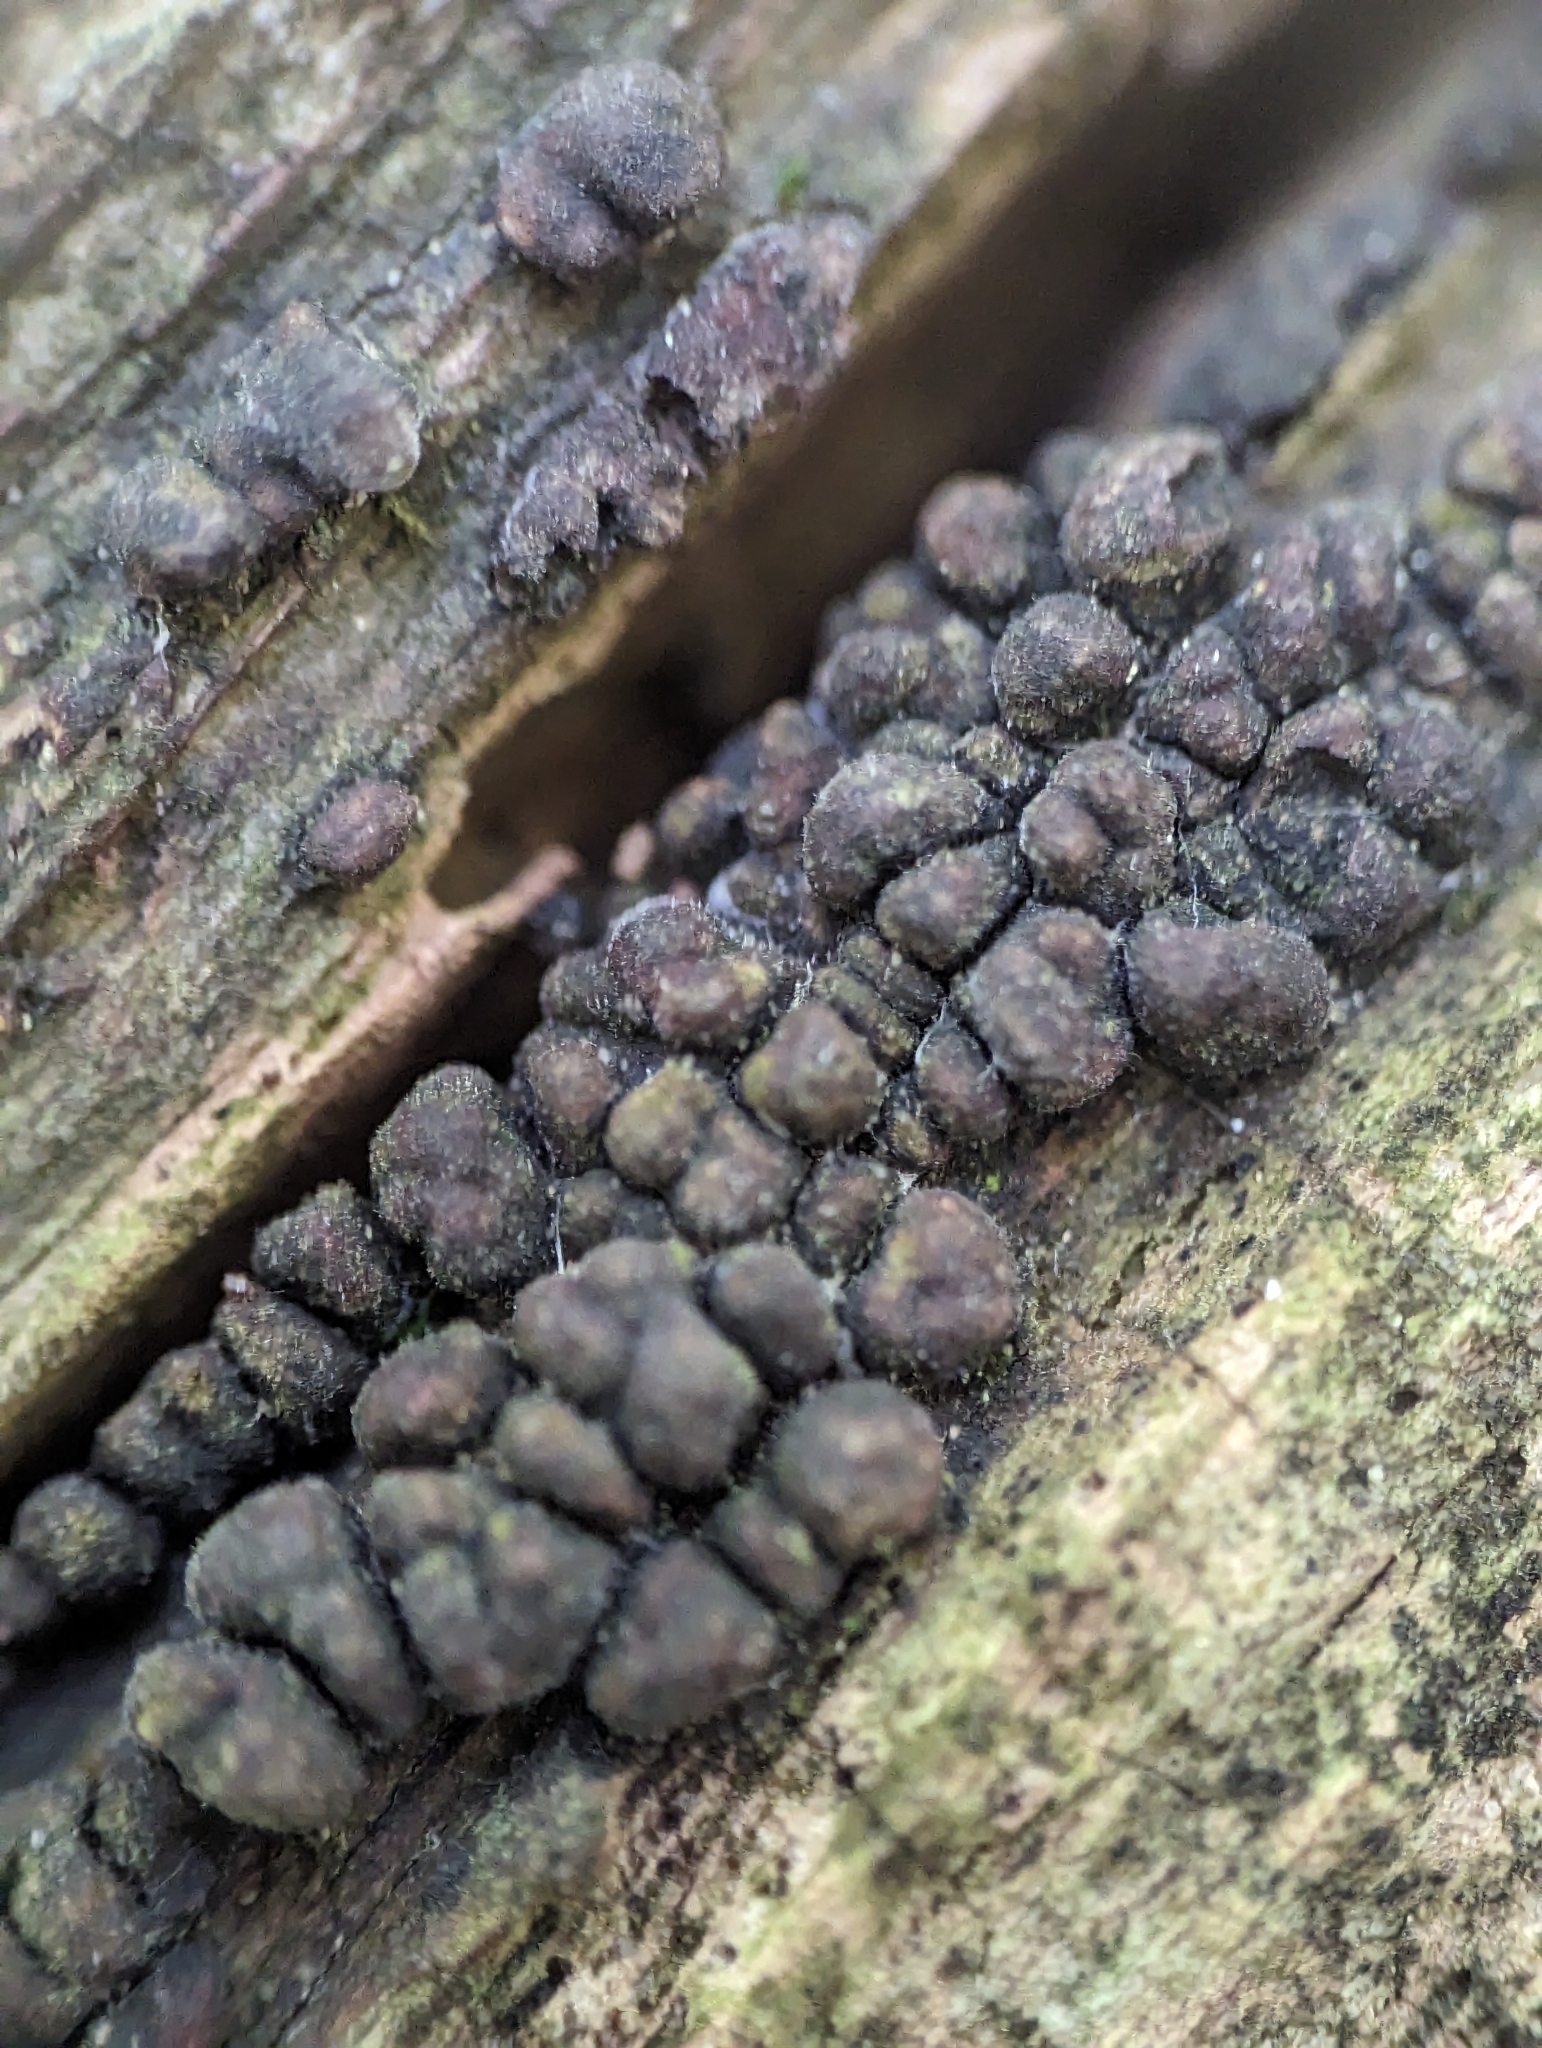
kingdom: Fungi
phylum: Basidiomycota
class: Agaricomycetes
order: Russulales
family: Stereaceae
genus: Xylobolus
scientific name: Xylobolus frustulatus
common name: Ceramic parchment
